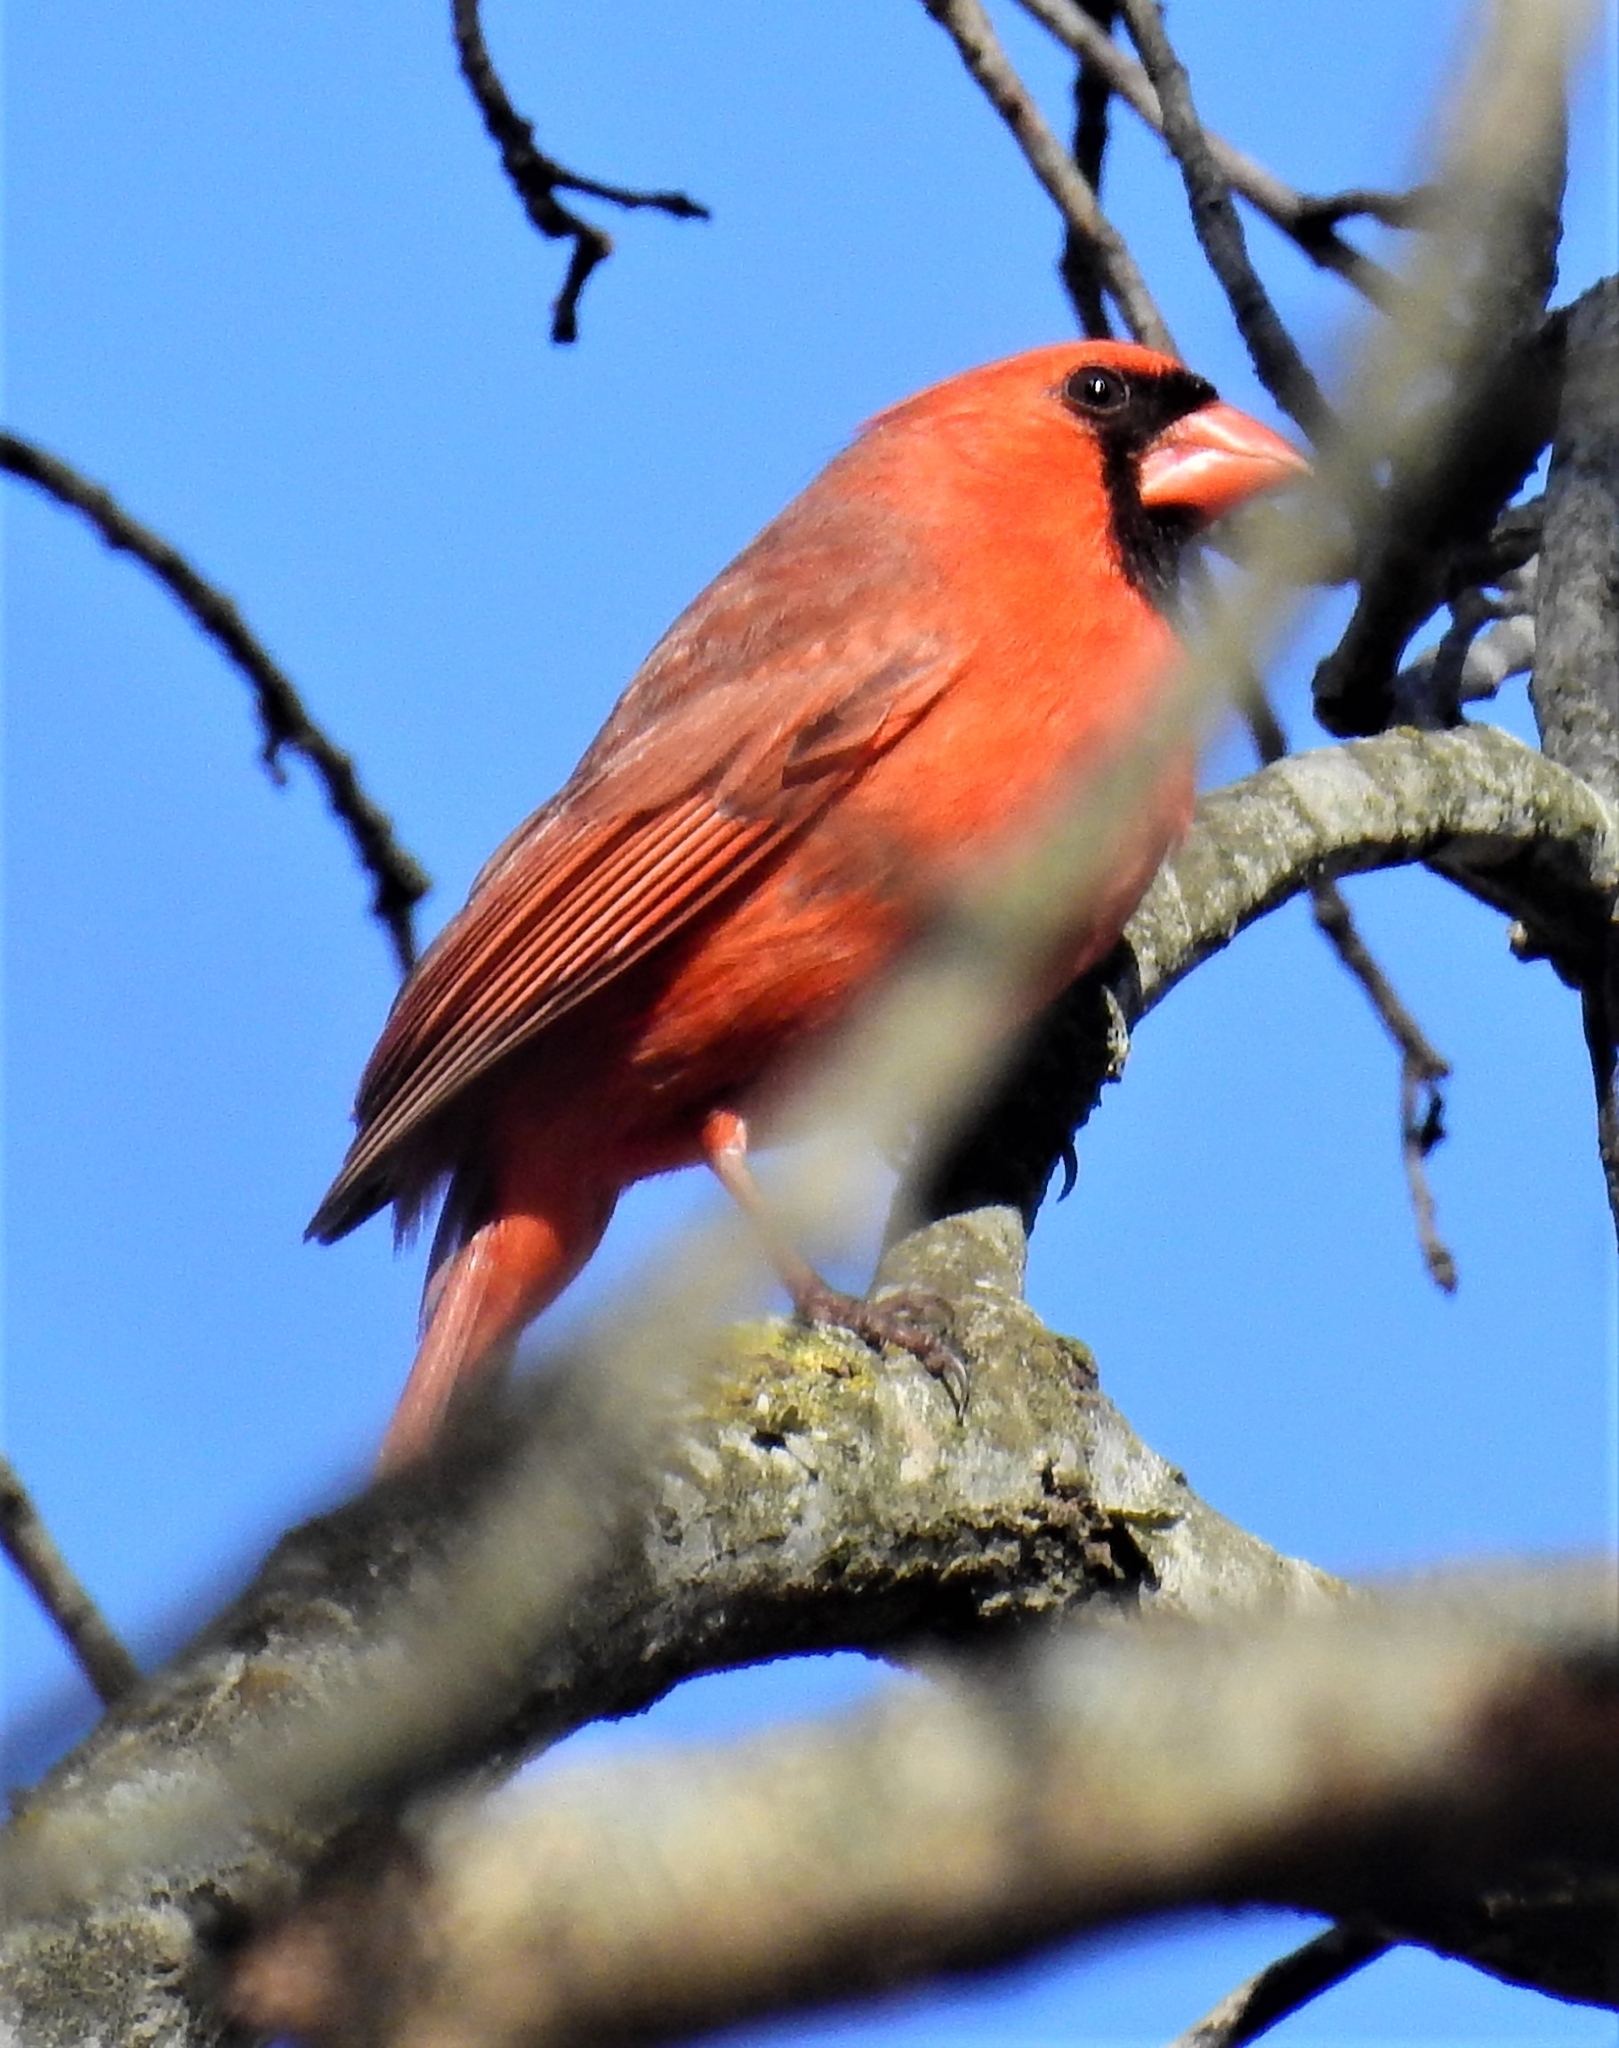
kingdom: Animalia
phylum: Chordata
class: Aves
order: Passeriformes
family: Cardinalidae
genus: Cardinalis
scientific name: Cardinalis cardinalis
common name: Northern cardinal
